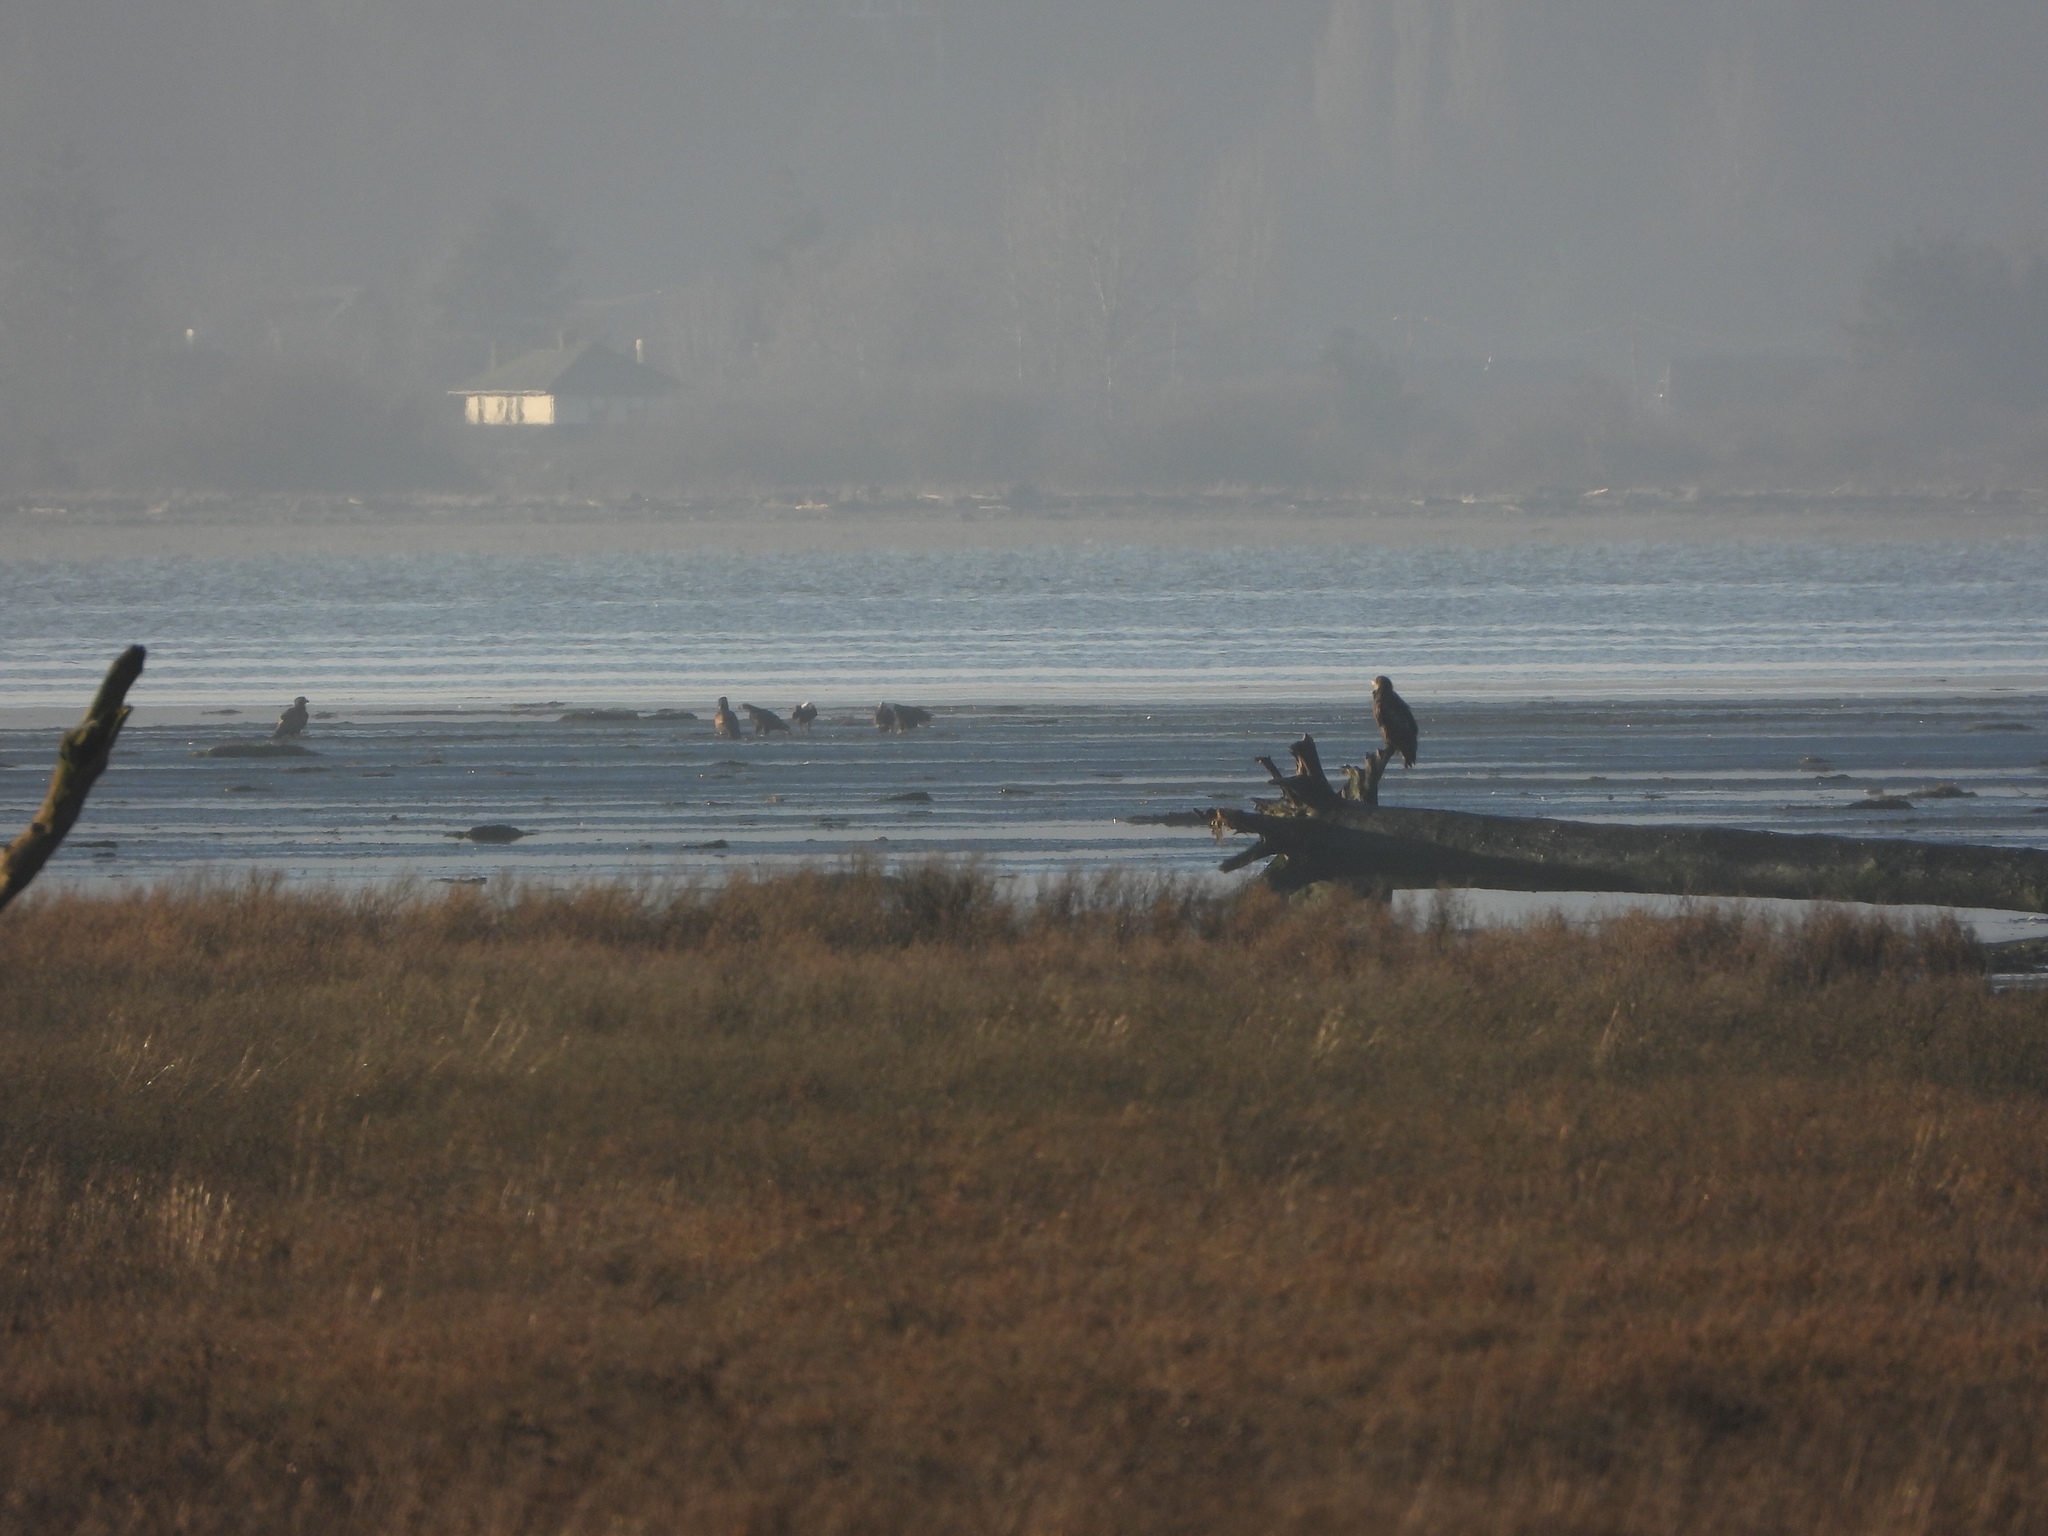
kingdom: Animalia
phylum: Chordata
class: Aves
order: Accipitriformes
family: Accipitridae
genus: Haliaeetus
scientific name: Haliaeetus leucocephalus
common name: Bald eagle
